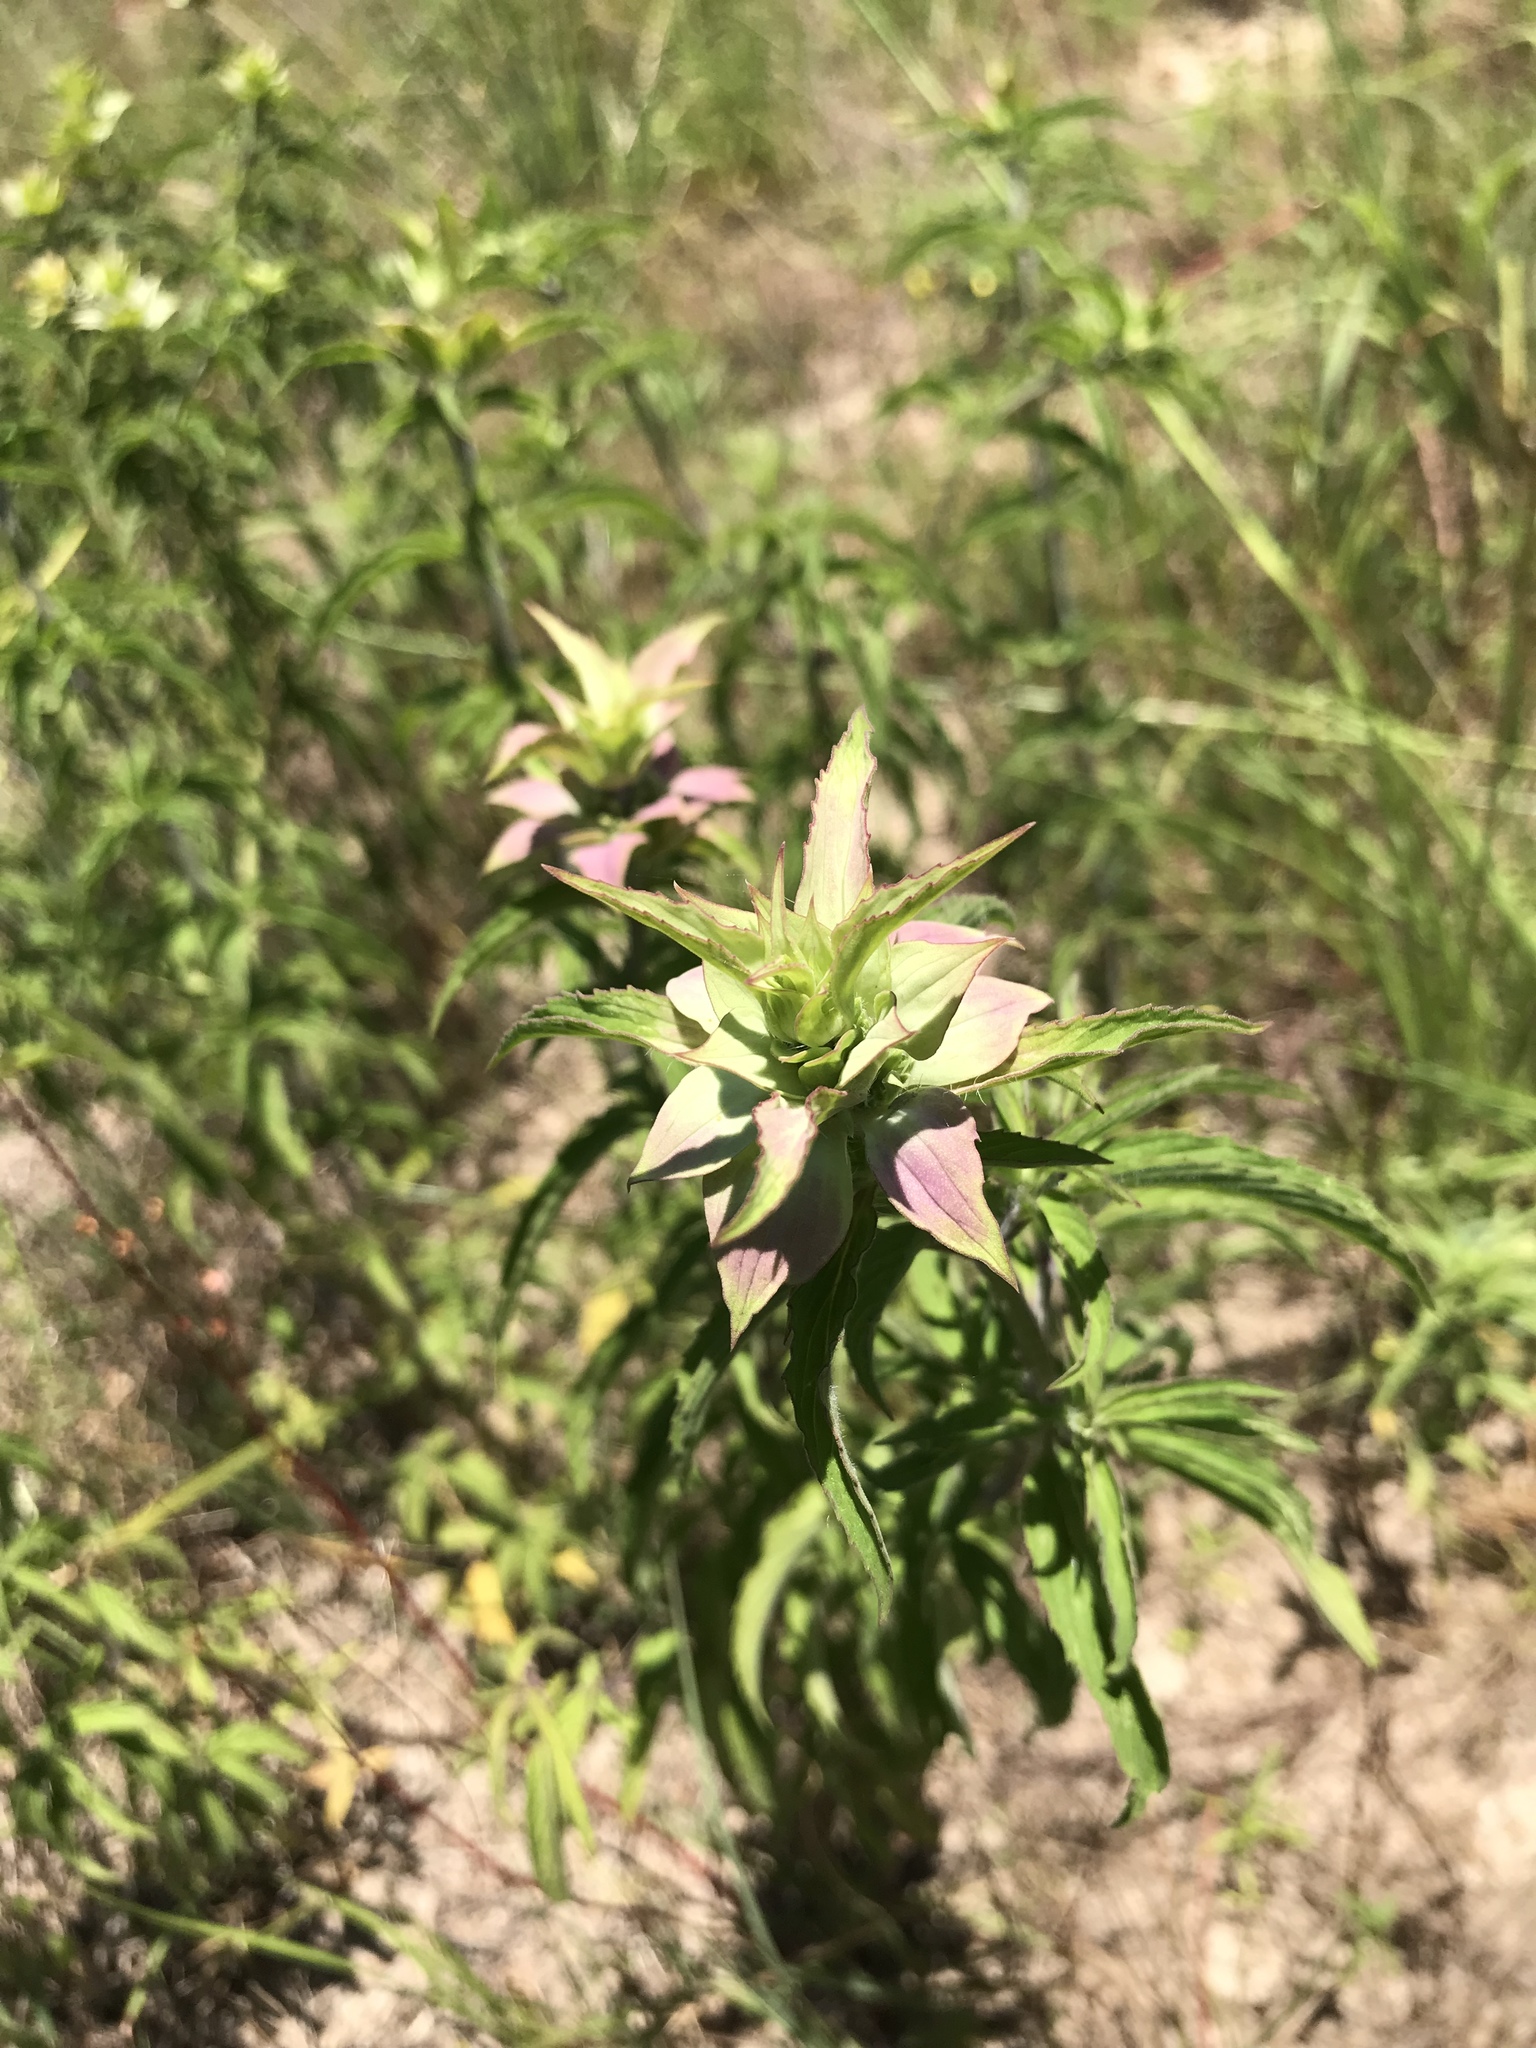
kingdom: Plantae
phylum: Tracheophyta
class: Magnoliopsida
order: Lamiales
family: Lamiaceae
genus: Monarda
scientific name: Monarda punctata
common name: Dotted monarda
